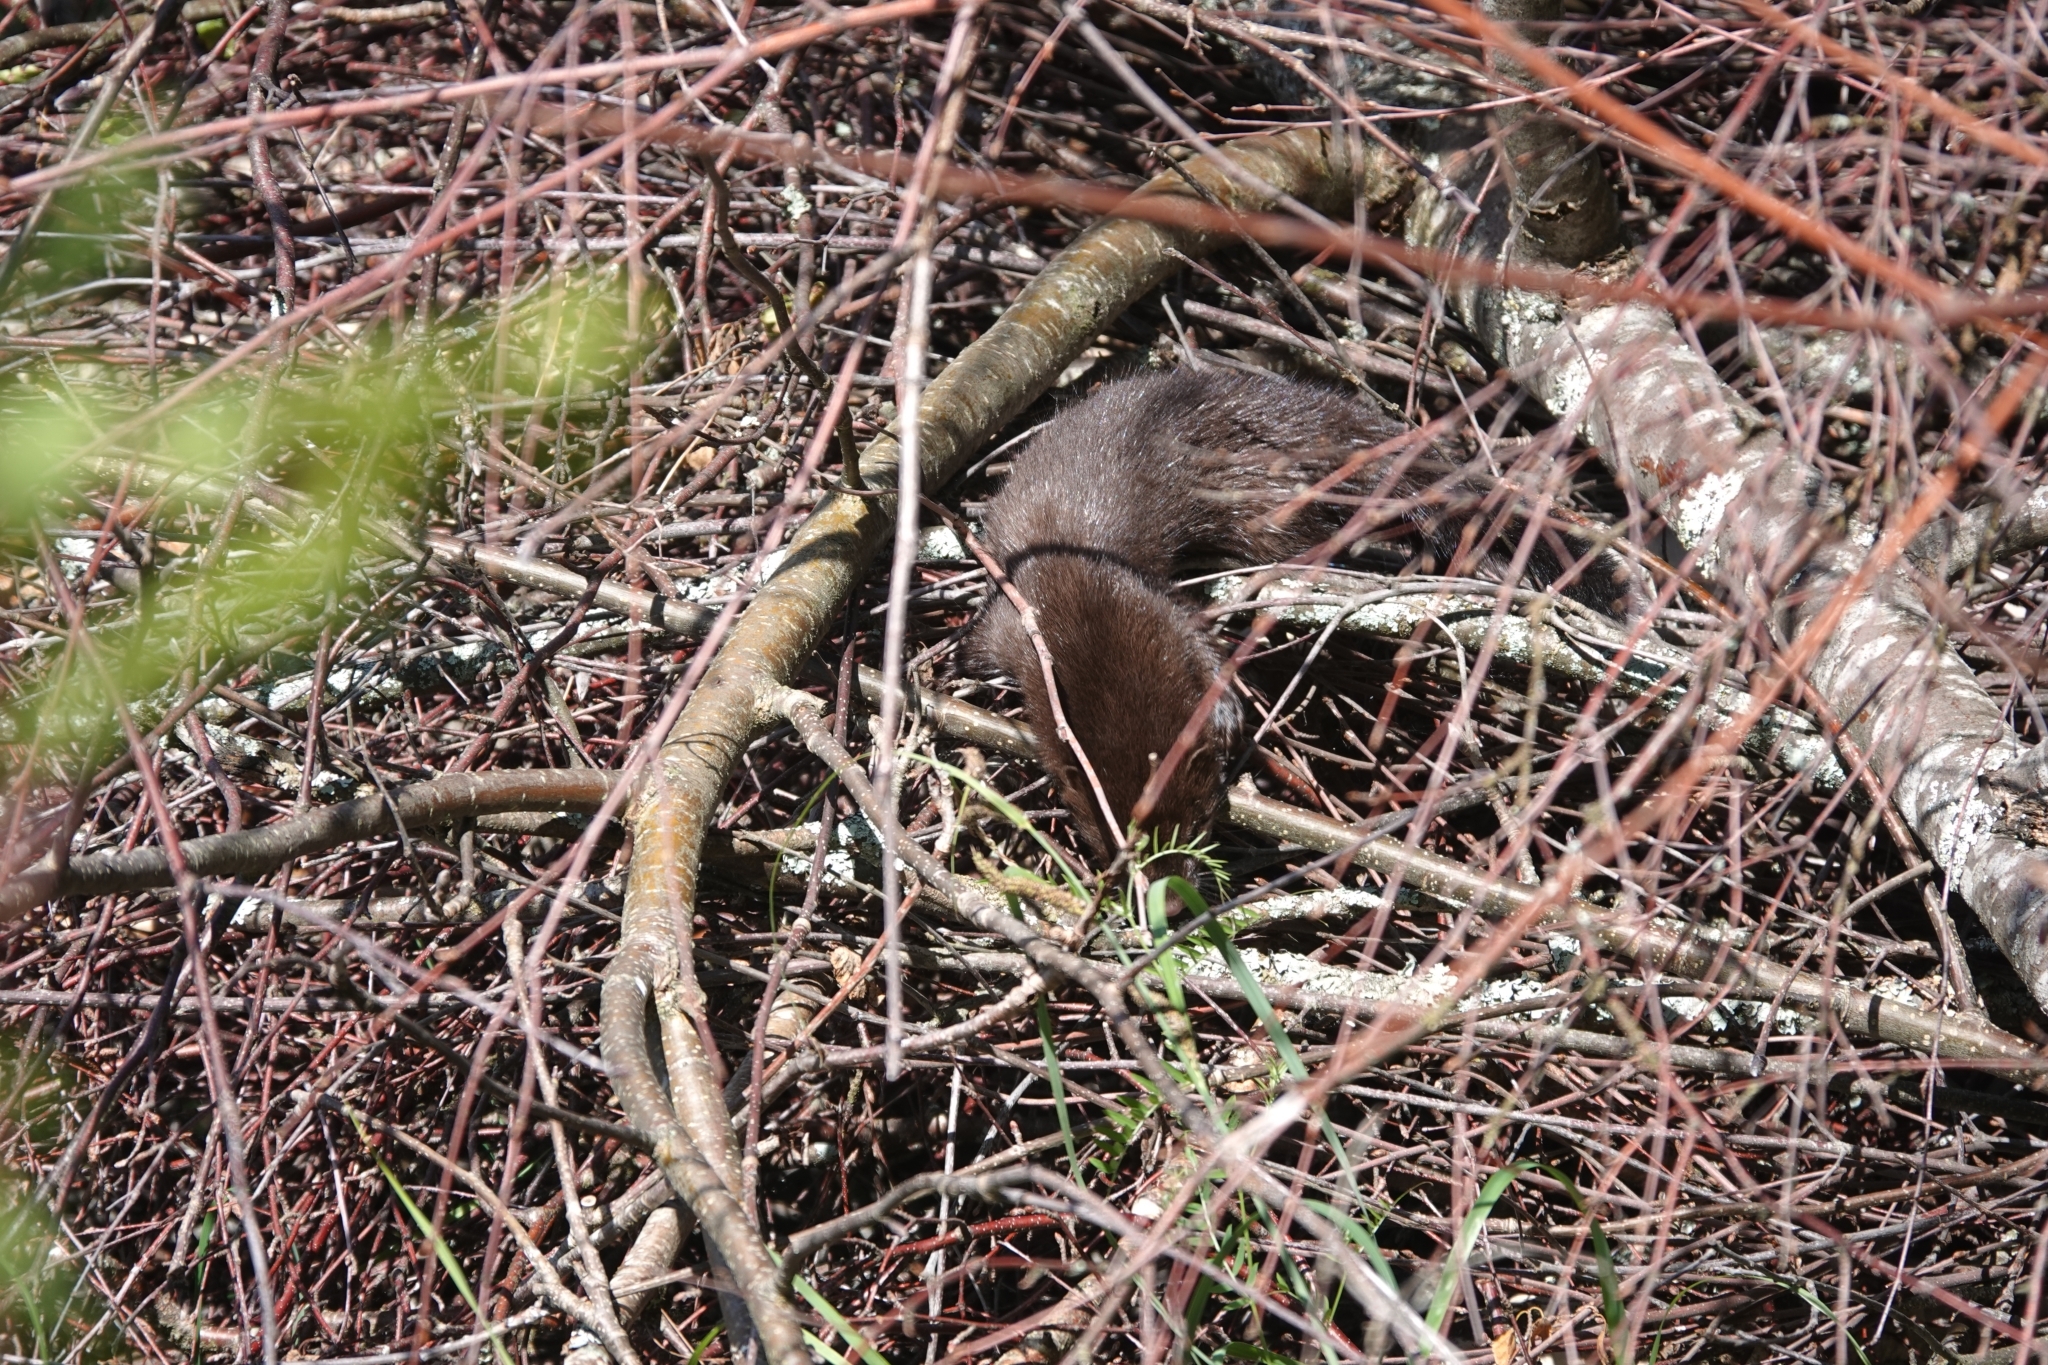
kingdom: Animalia
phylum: Chordata
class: Mammalia
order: Carnivora
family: Mustelidae
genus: Mustela
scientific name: Mustela
